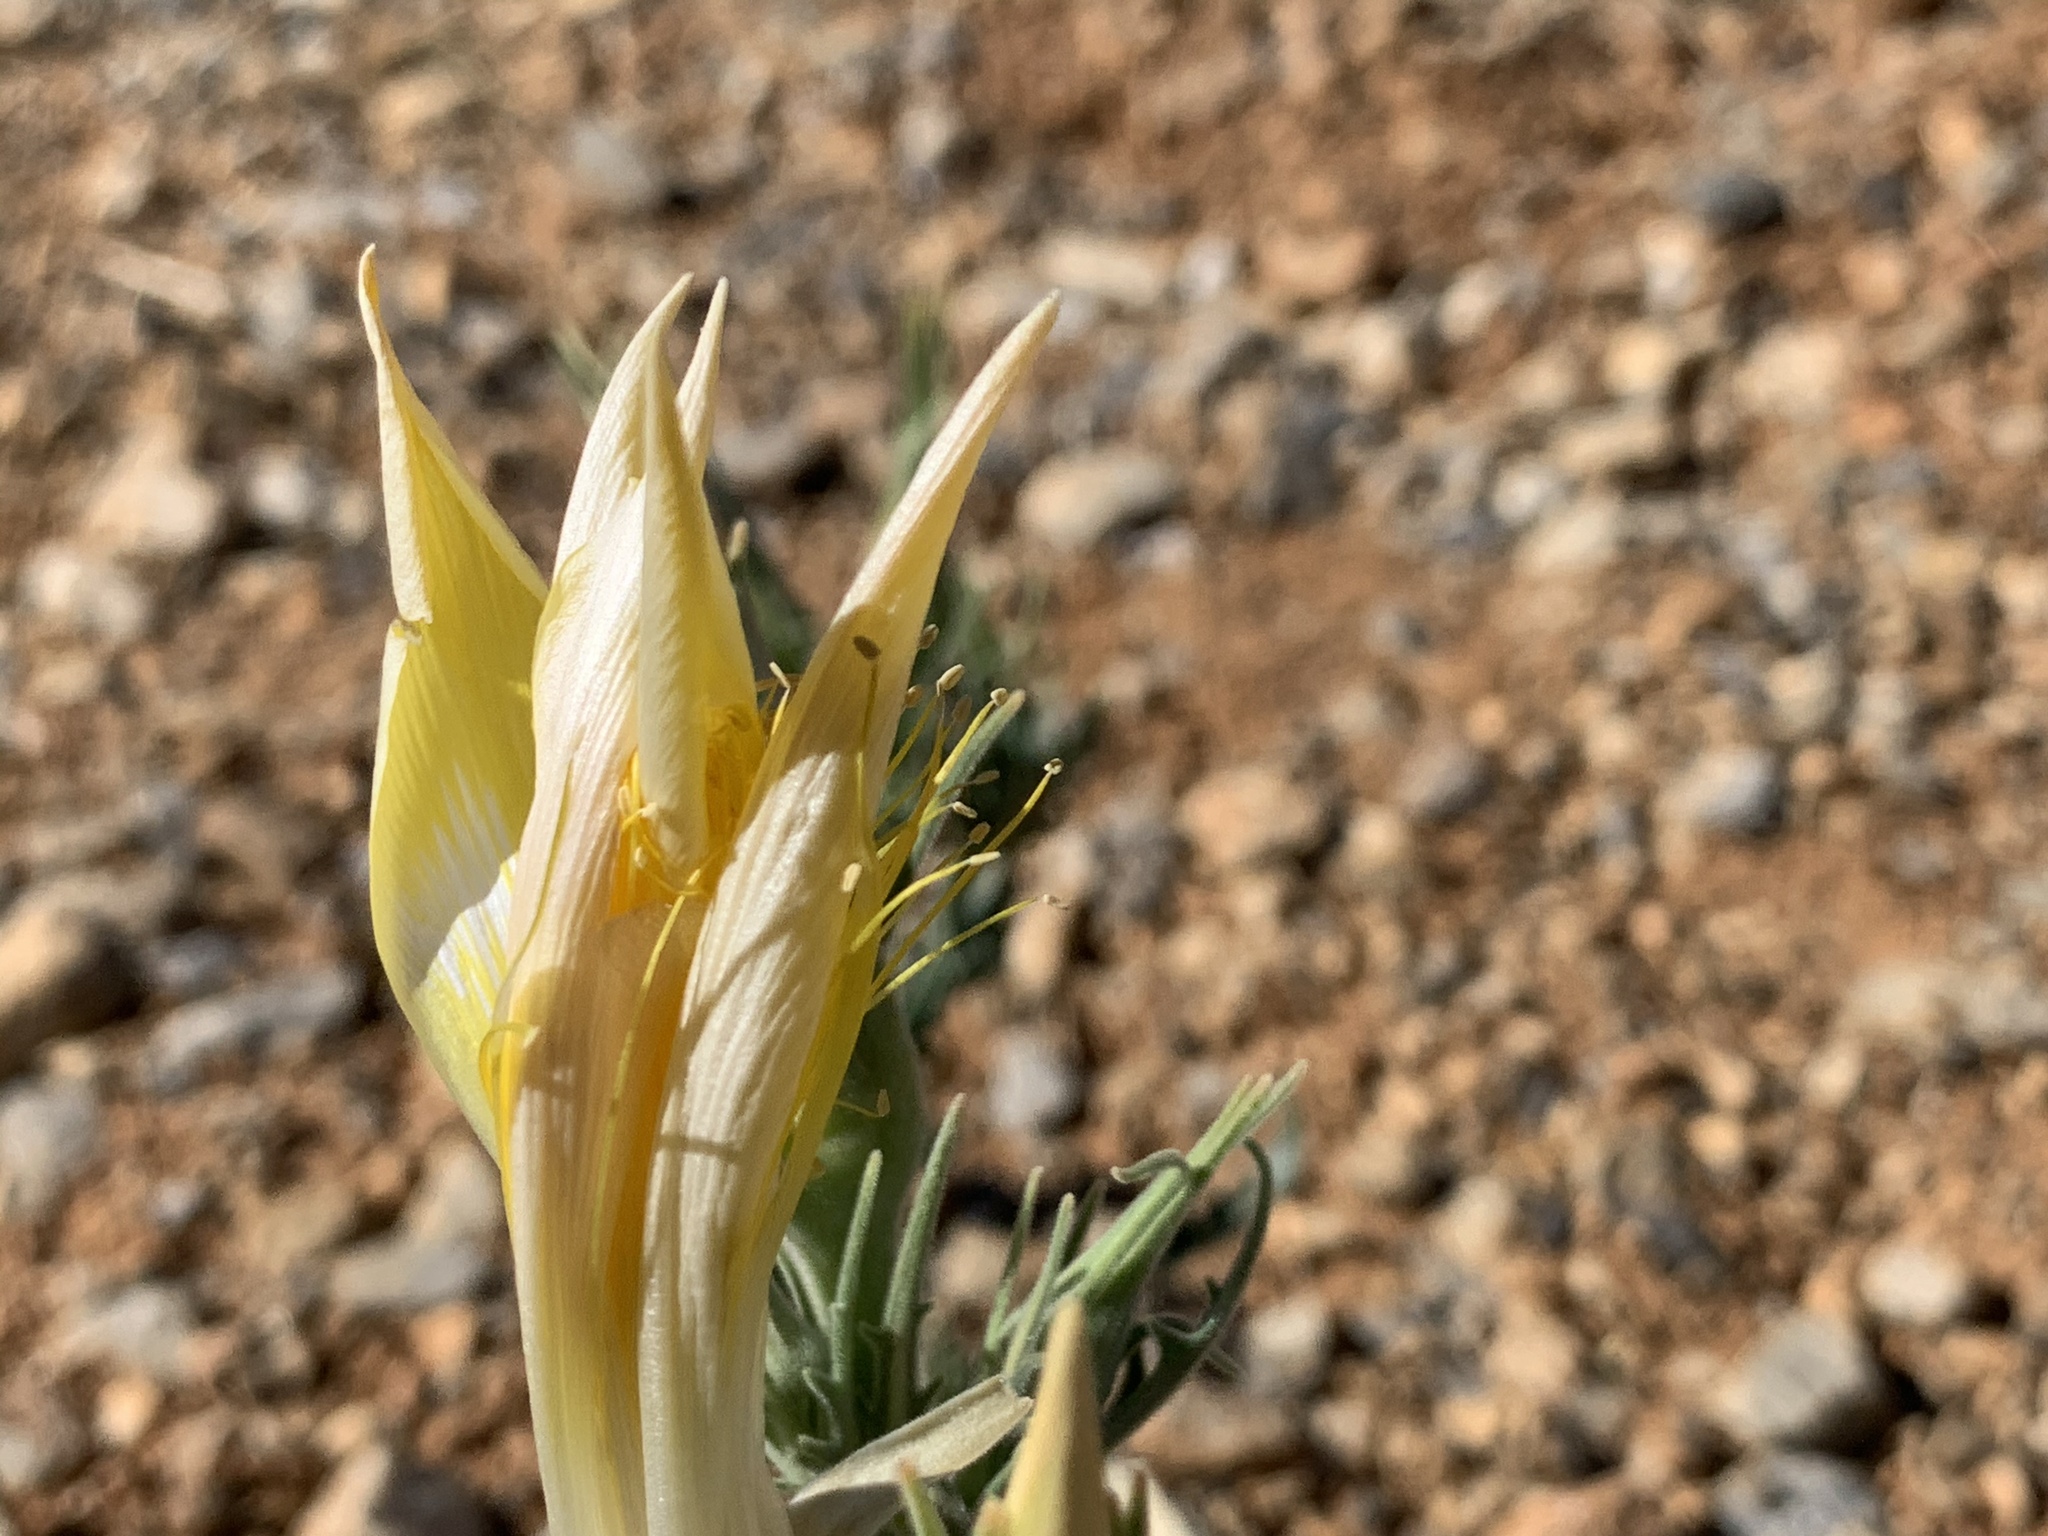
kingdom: Plantae
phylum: Tracheophyta
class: Magnoliopsida
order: Cornales
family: Loasaceae
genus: Mentzelia
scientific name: Mentzelia laevicaulis
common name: Smooth-stem blazingstar
